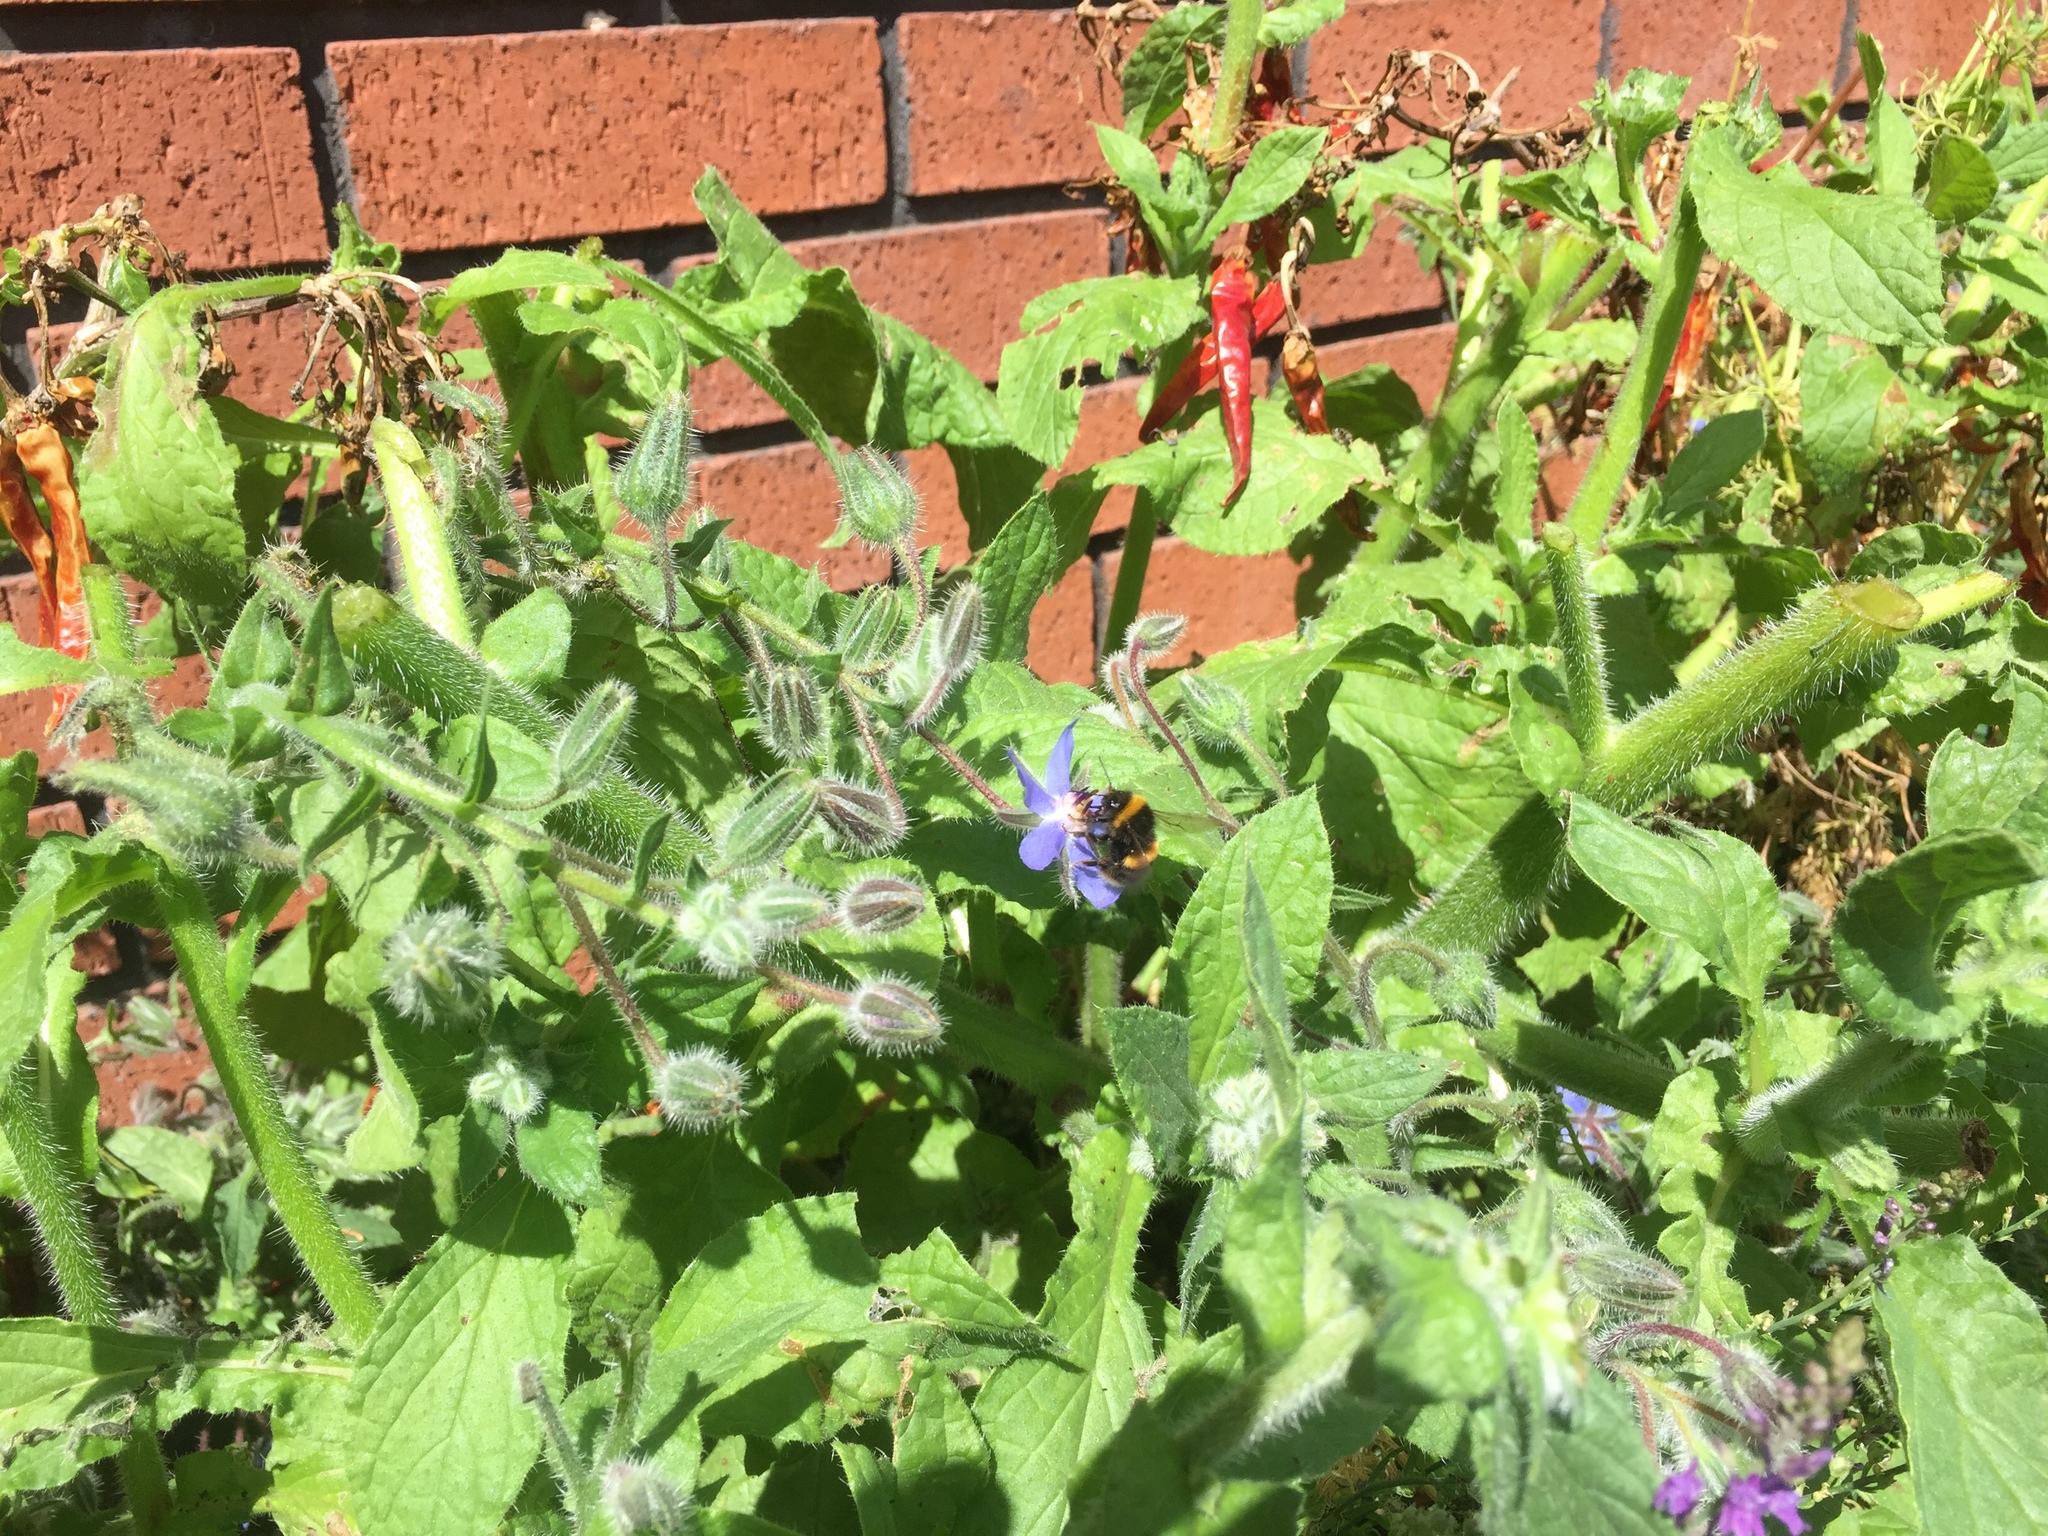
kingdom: Animalia
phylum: Arthropoda
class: Insecta
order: Hymenoptera
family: Apidae
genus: Bombus
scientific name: Bombus terrestris
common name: Buff-tailed bumblebee
